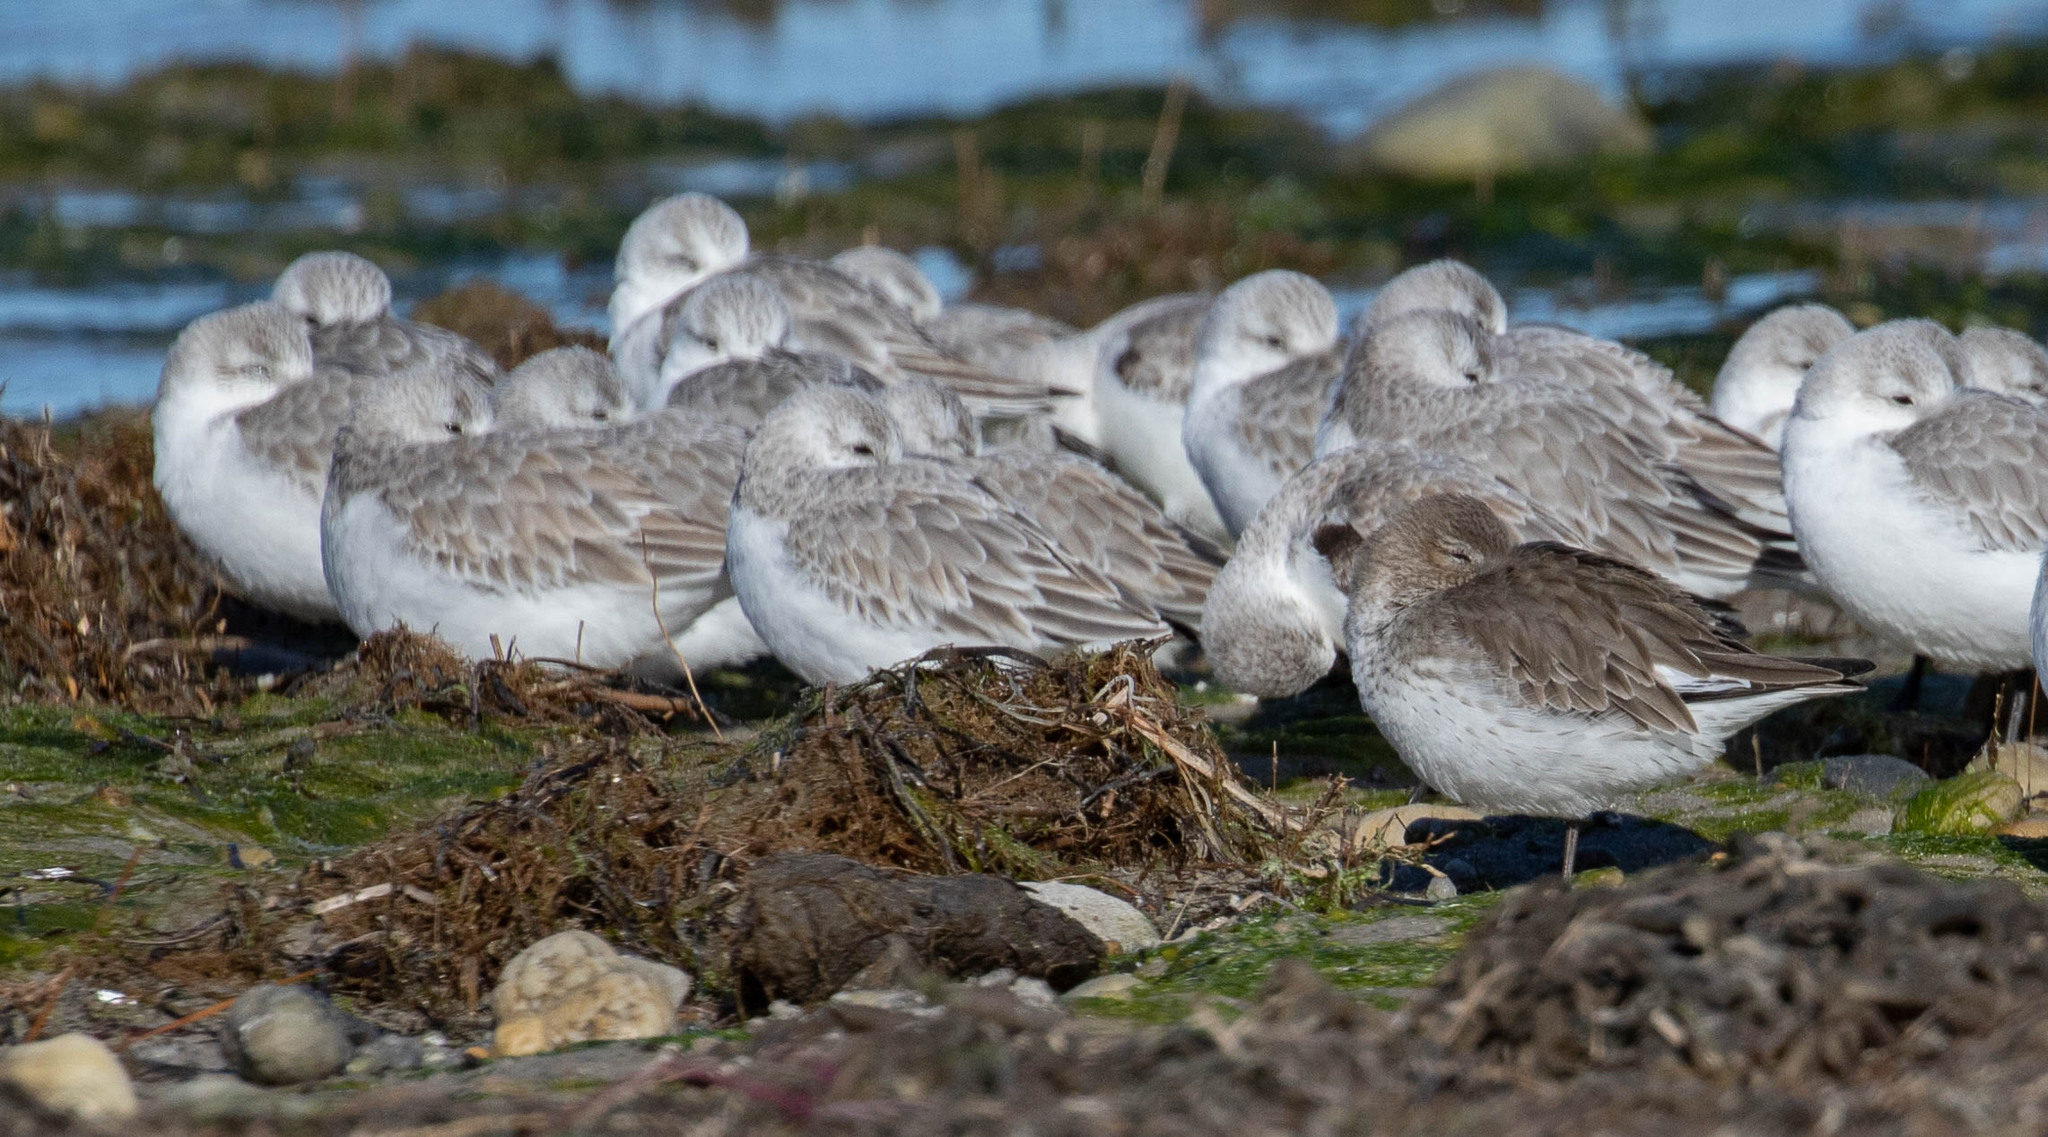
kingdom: Animalia
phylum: Chordata
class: Aves
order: Charadriiformes
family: Scolopacidae
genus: Calidris
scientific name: Calidris alba
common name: Sanderling
